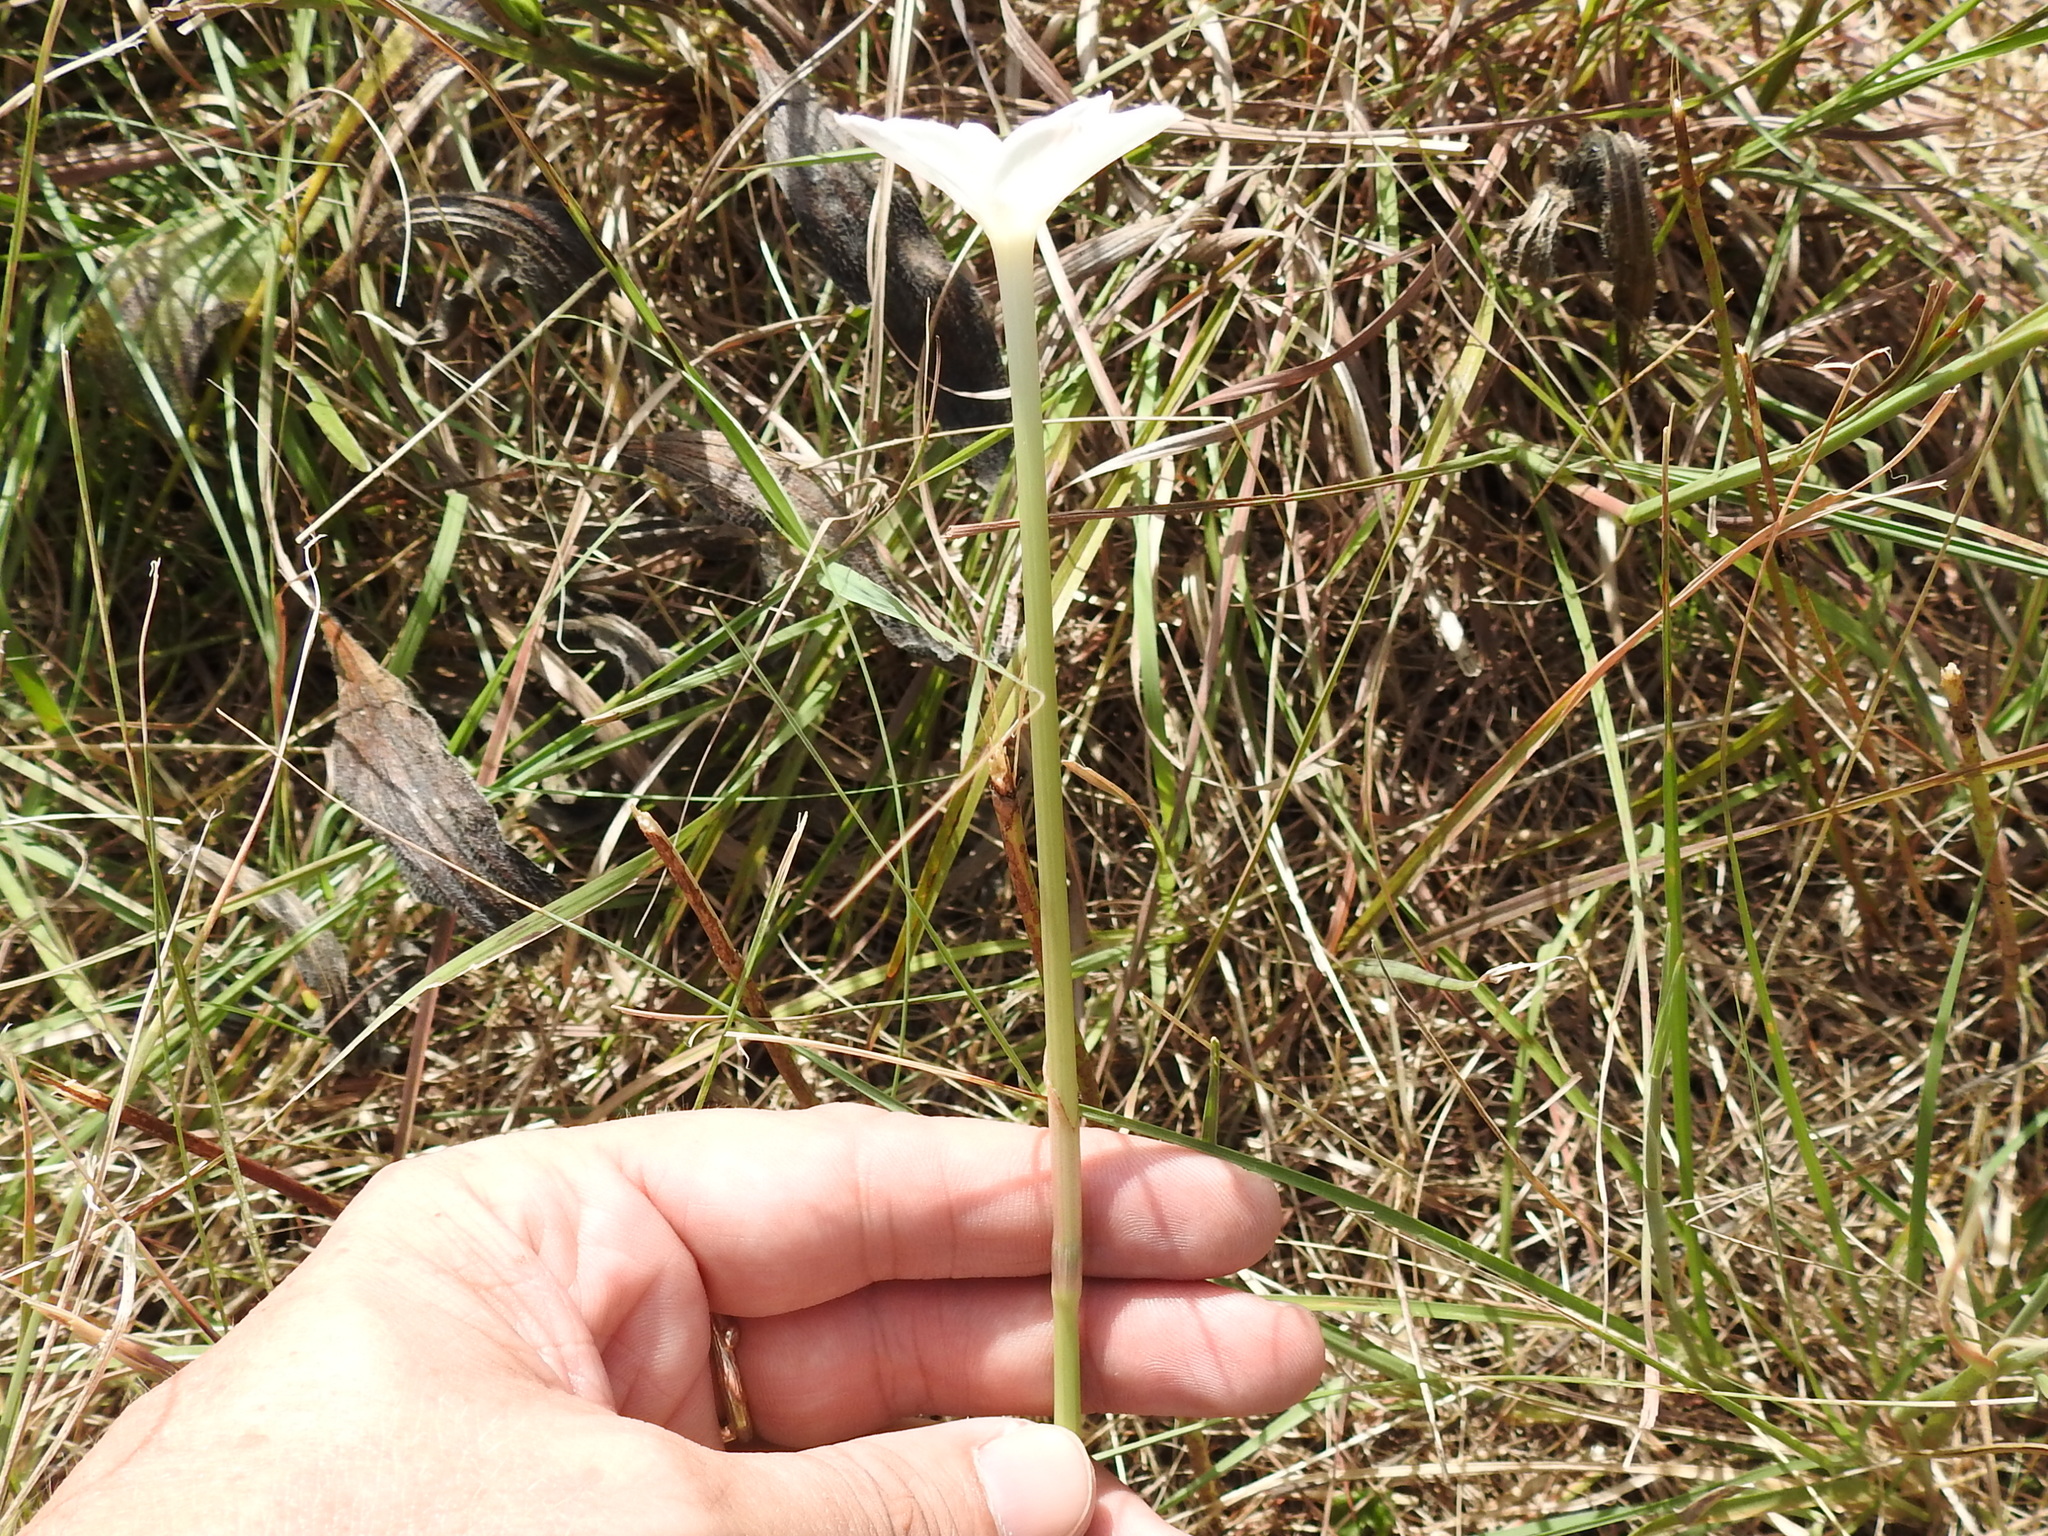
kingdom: Plantae
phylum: Tracheophyta
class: Liliopsida
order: Asparagales
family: Amaryllidaceae
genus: Zephyranthes
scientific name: Zephyranthes chlorosolen
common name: Evening rain-lily
